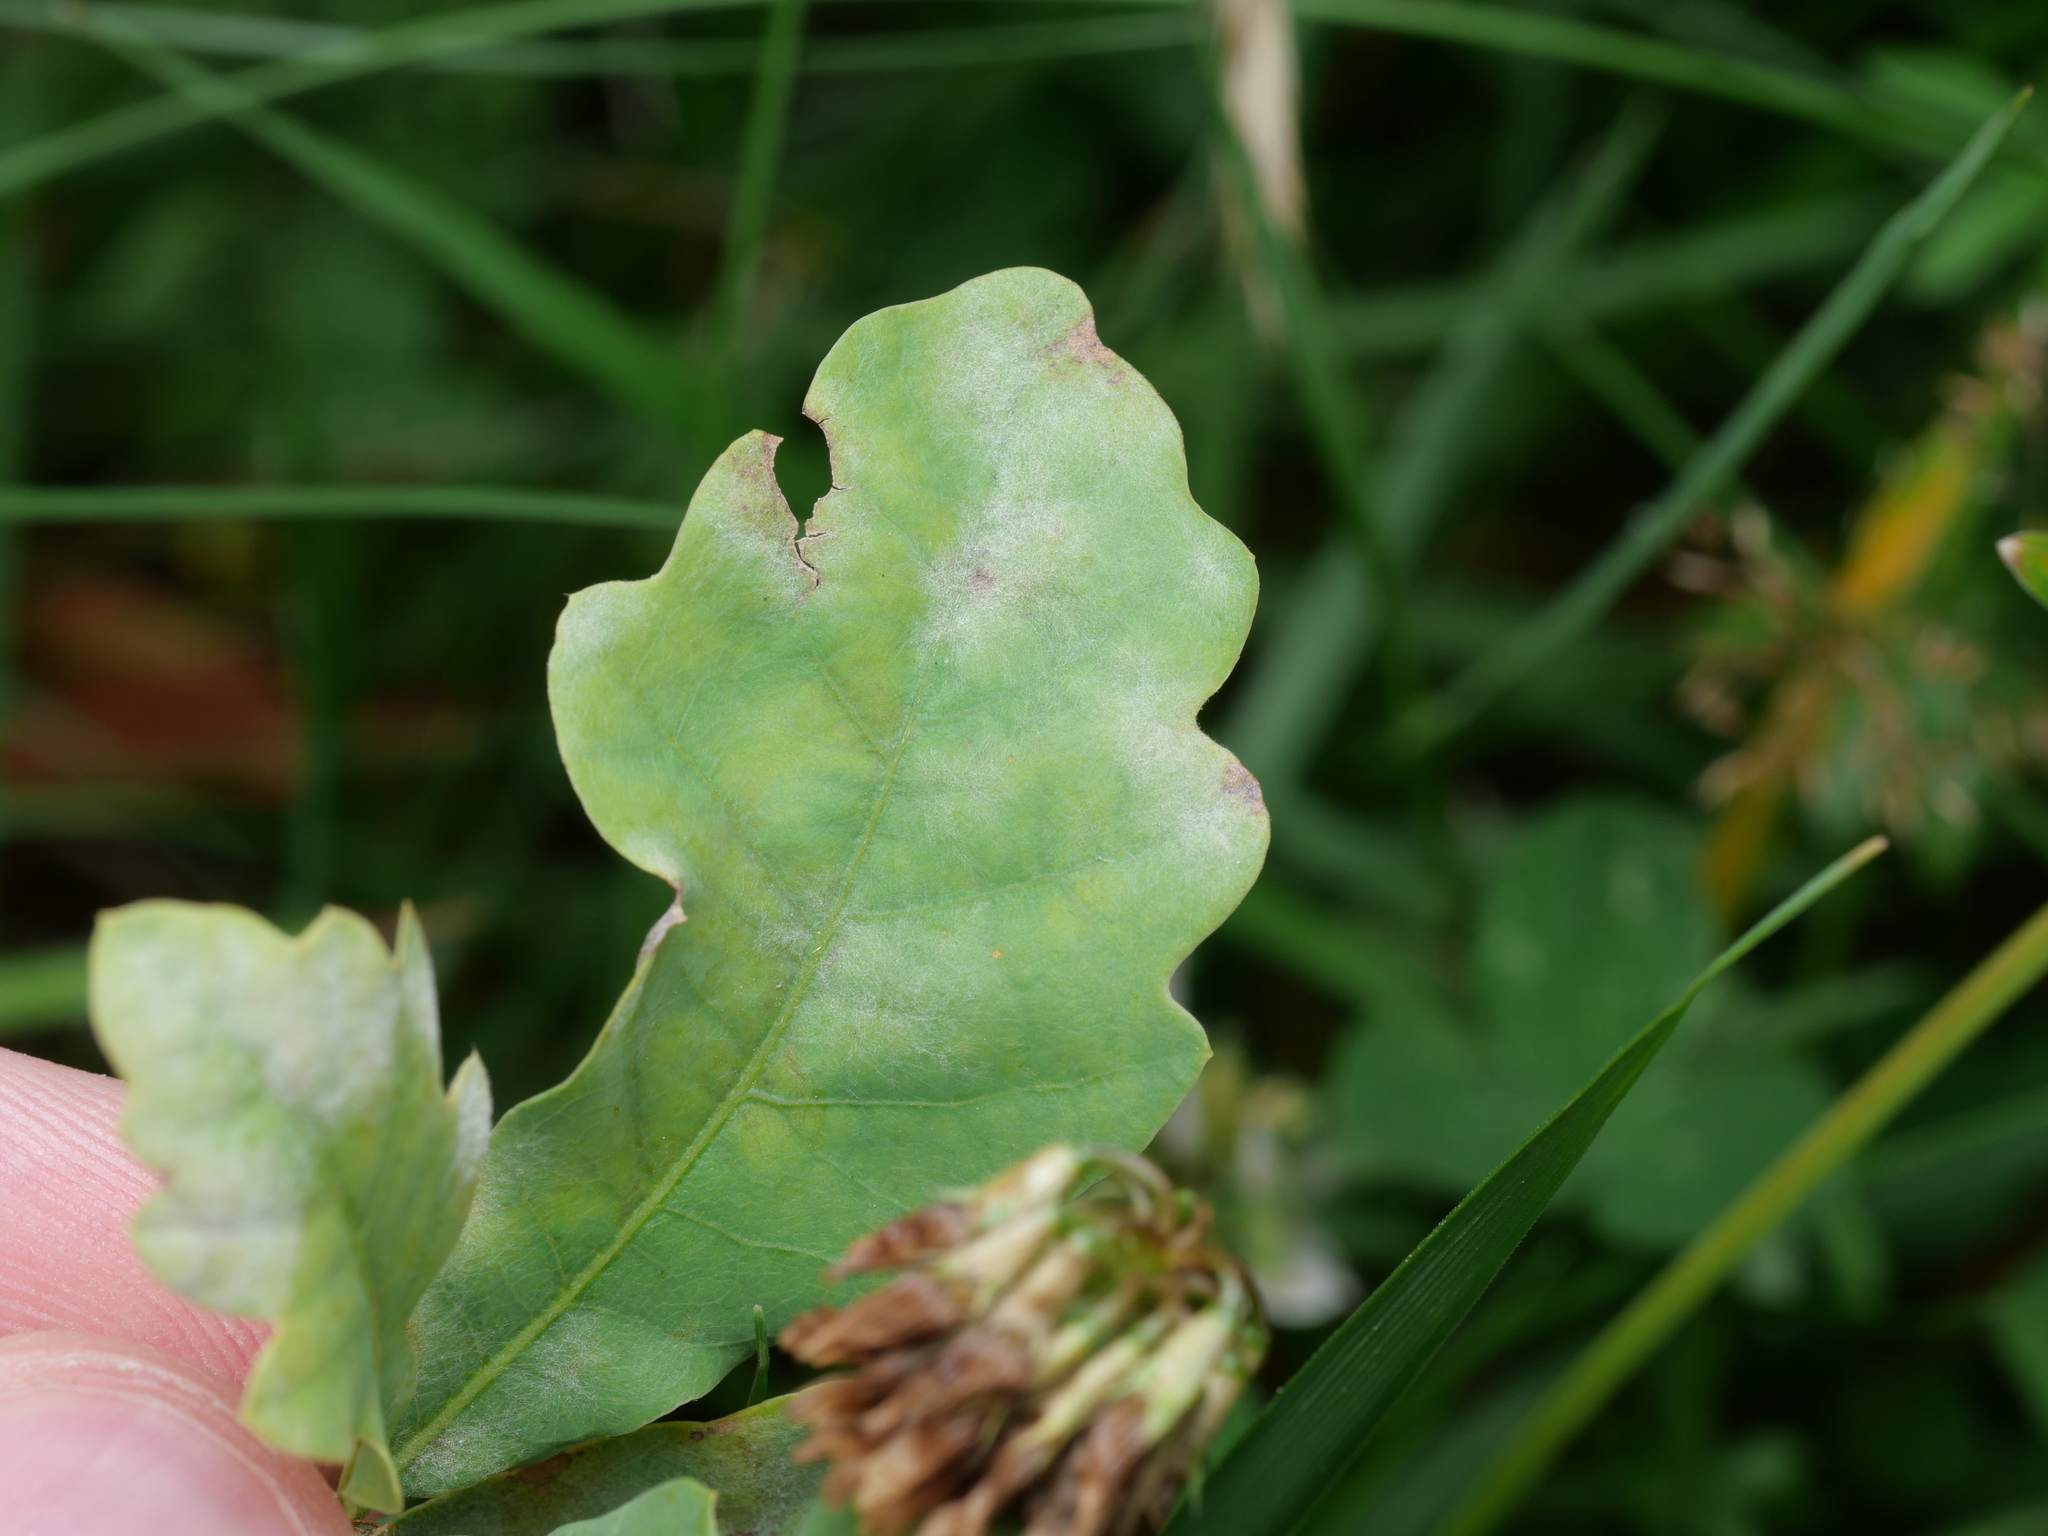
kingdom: Fungi
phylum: Ascomycota
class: Leotiomycetes
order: Helotiales
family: Erysiphaceae
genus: Erysiphe
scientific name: Erysiphe
